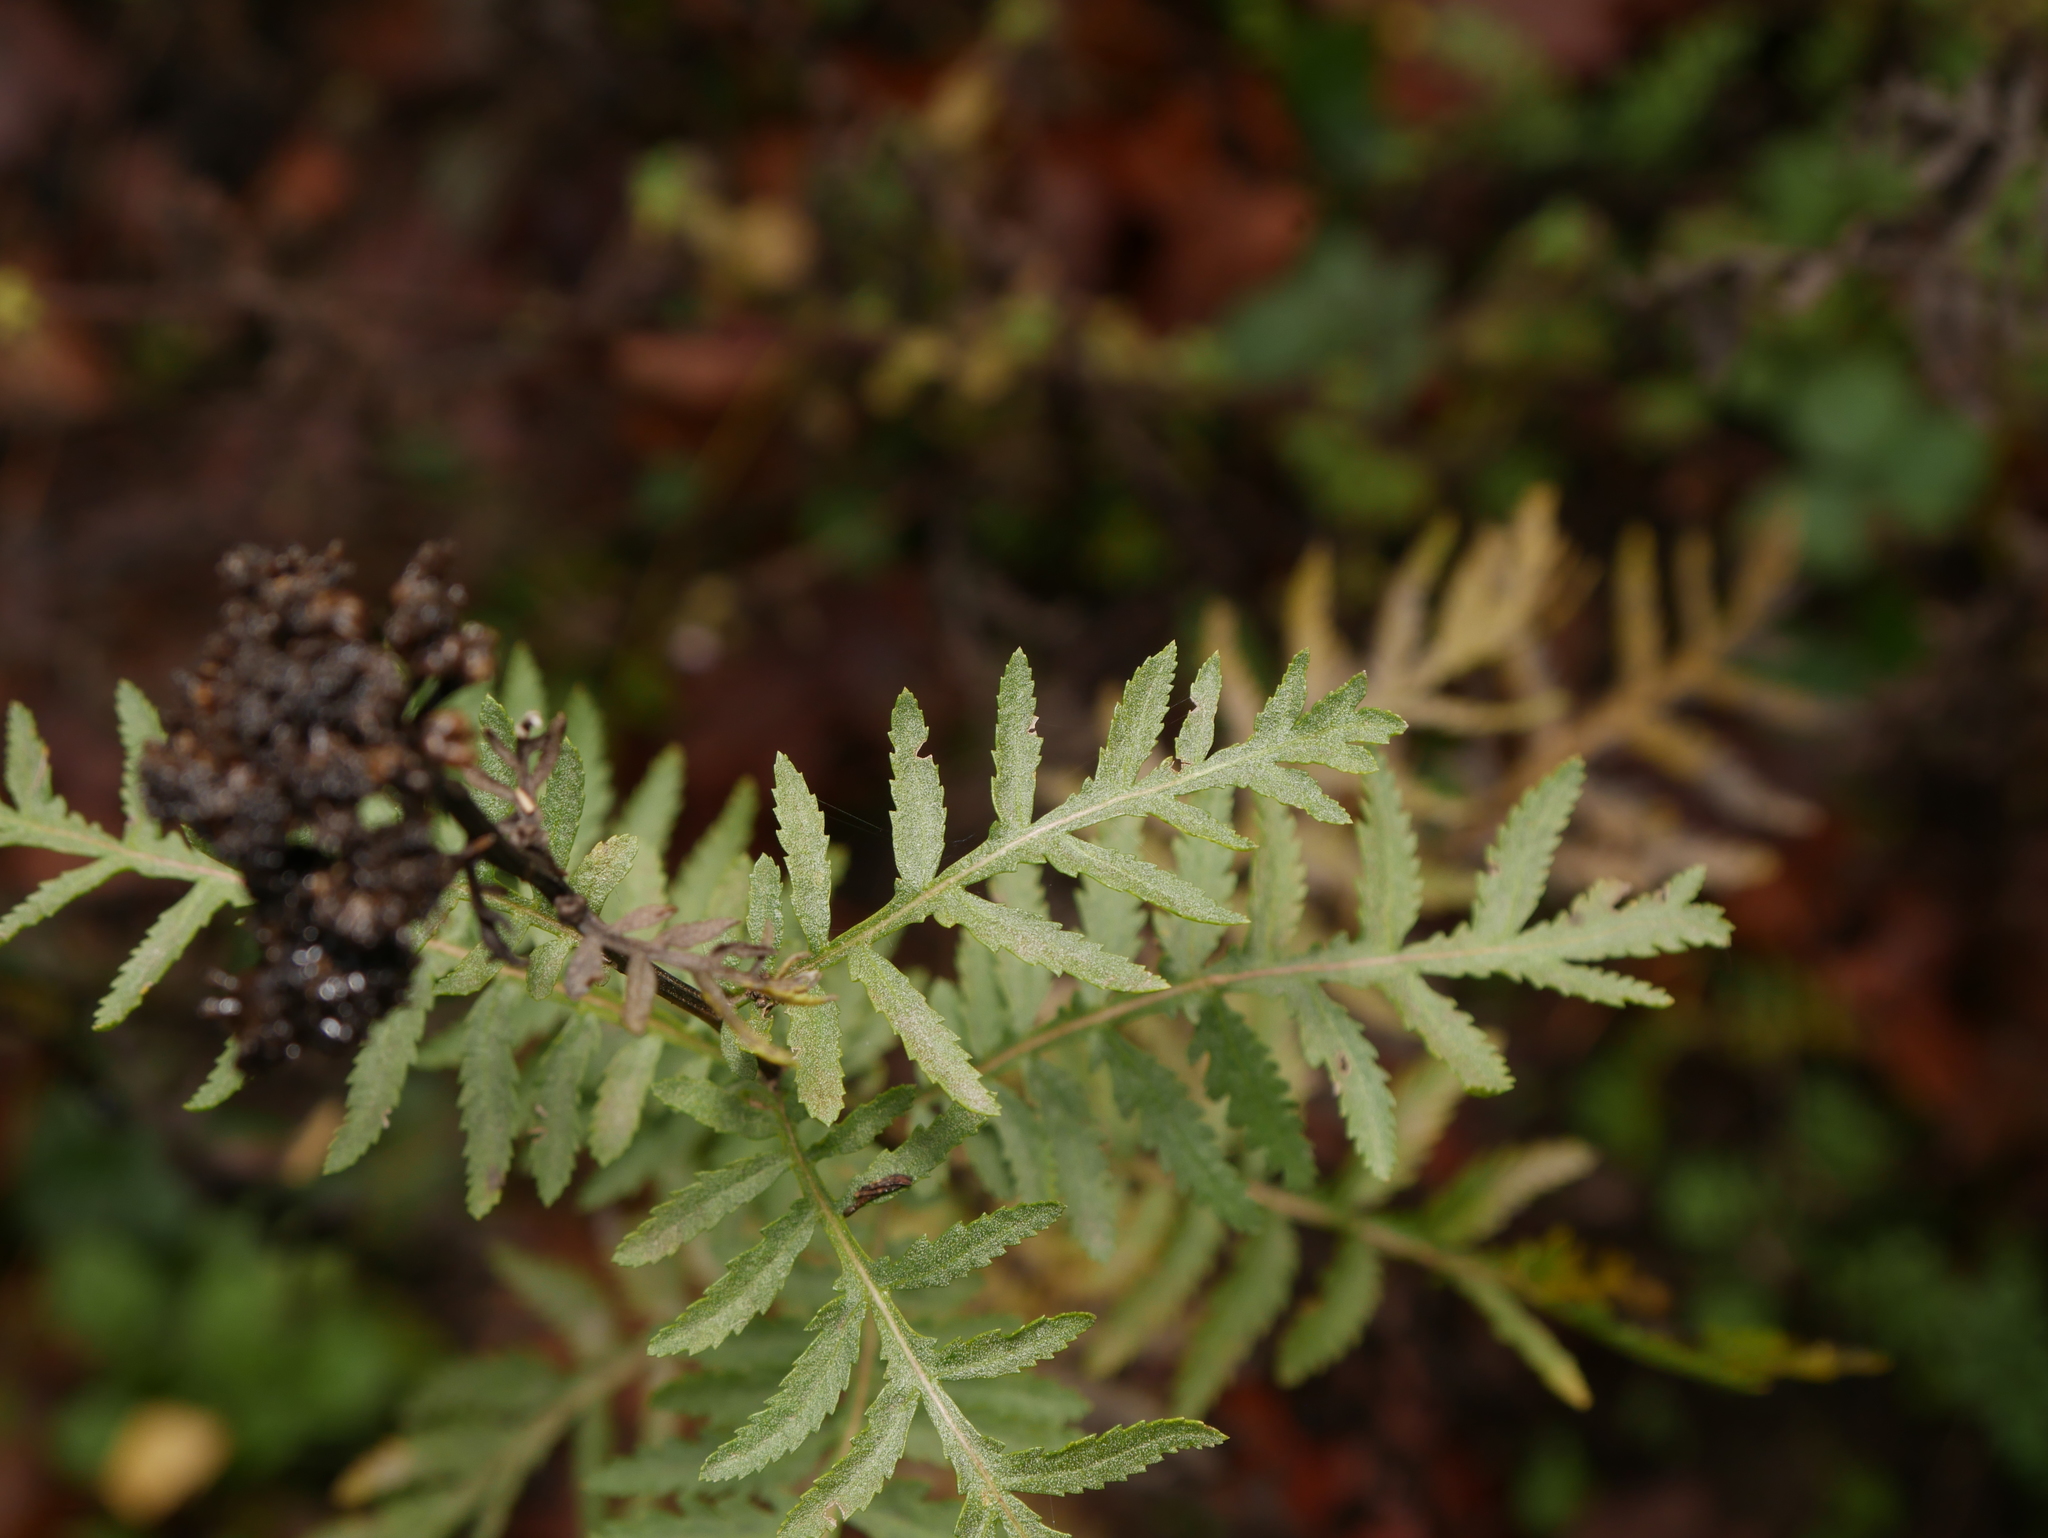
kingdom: Plantae
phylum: Tracheophyta
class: Magnoliopsida
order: Asterales
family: Asteraceae
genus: Tanacetum
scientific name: Tanacetum vulgare
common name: Common tansy
